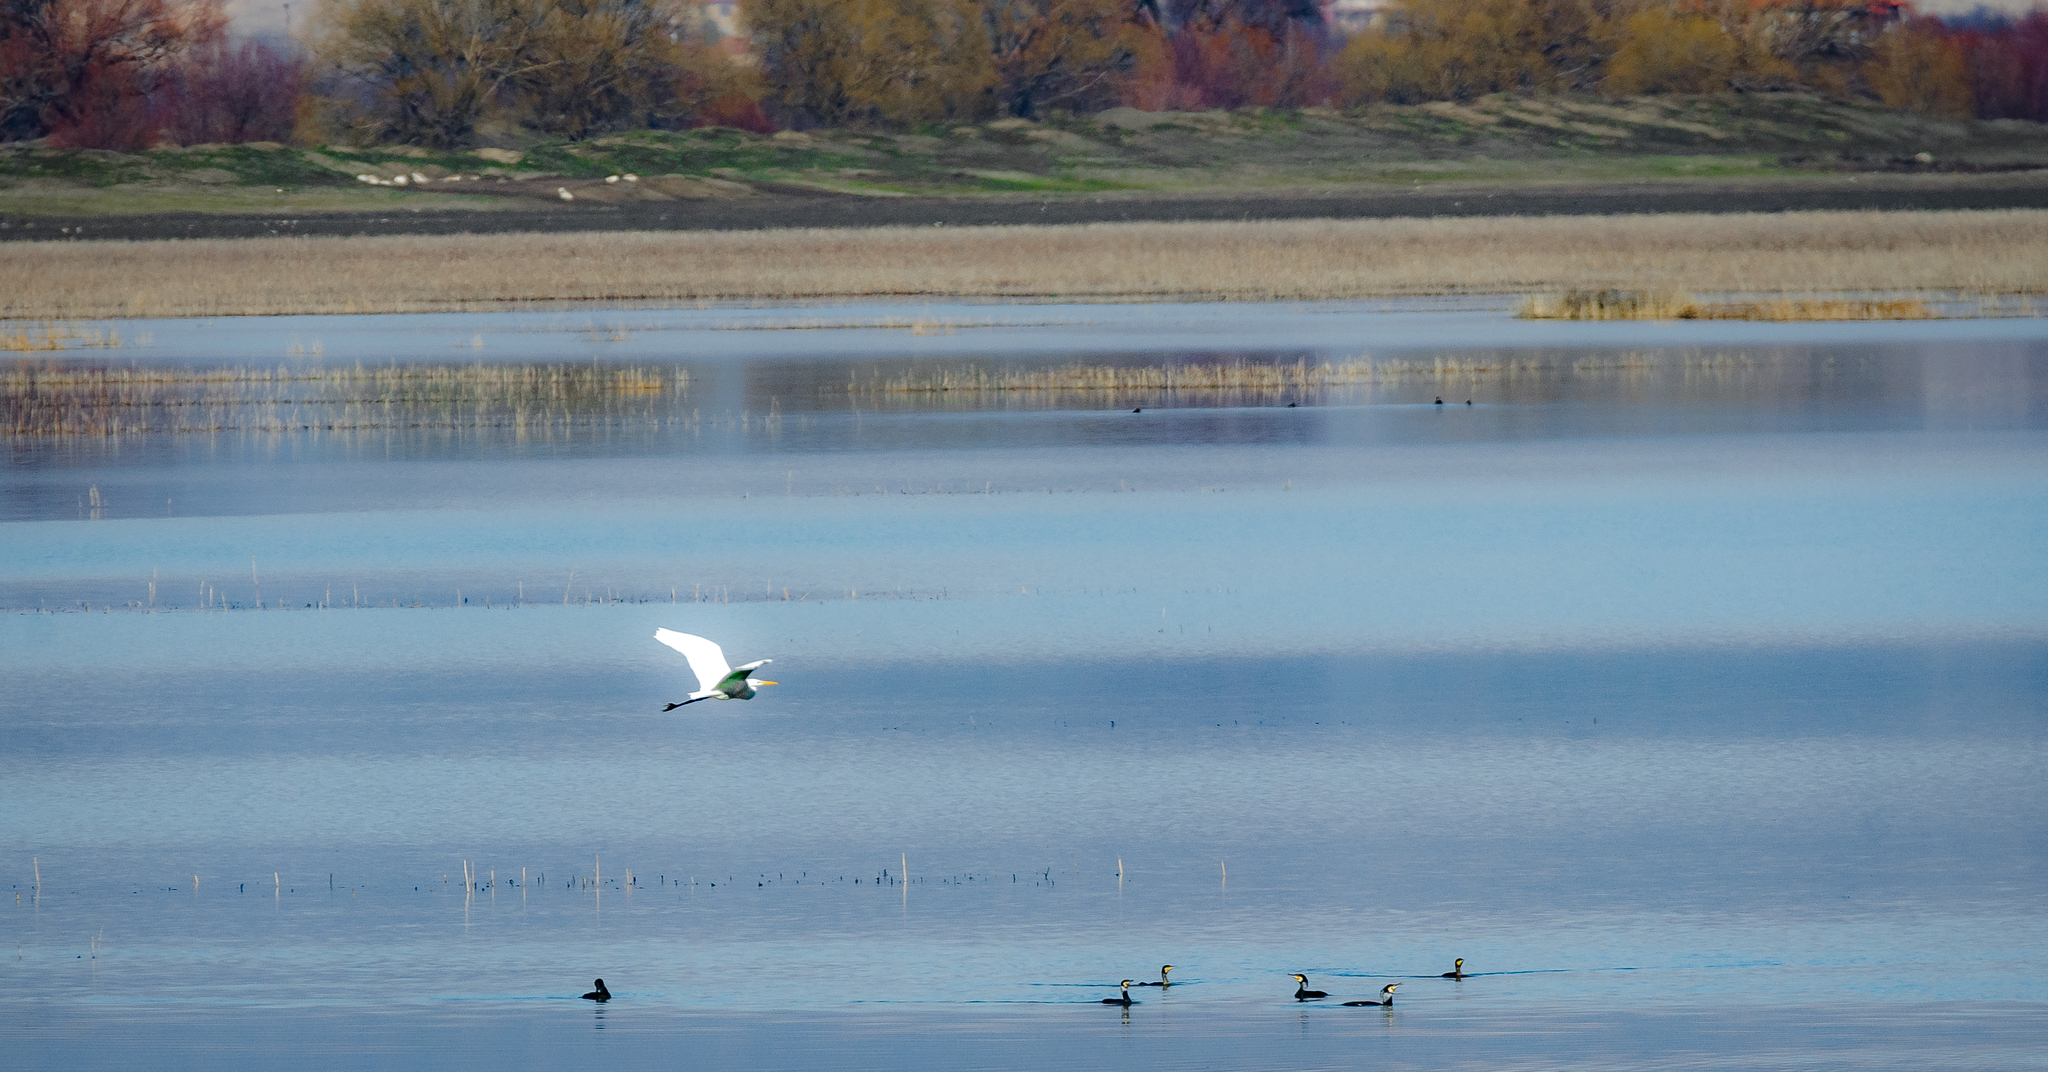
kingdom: Animalia
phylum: Chordata
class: Aves
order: Pelecaniformes
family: Ardeidae
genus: Ardea
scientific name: Ardea alba
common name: Great egret
